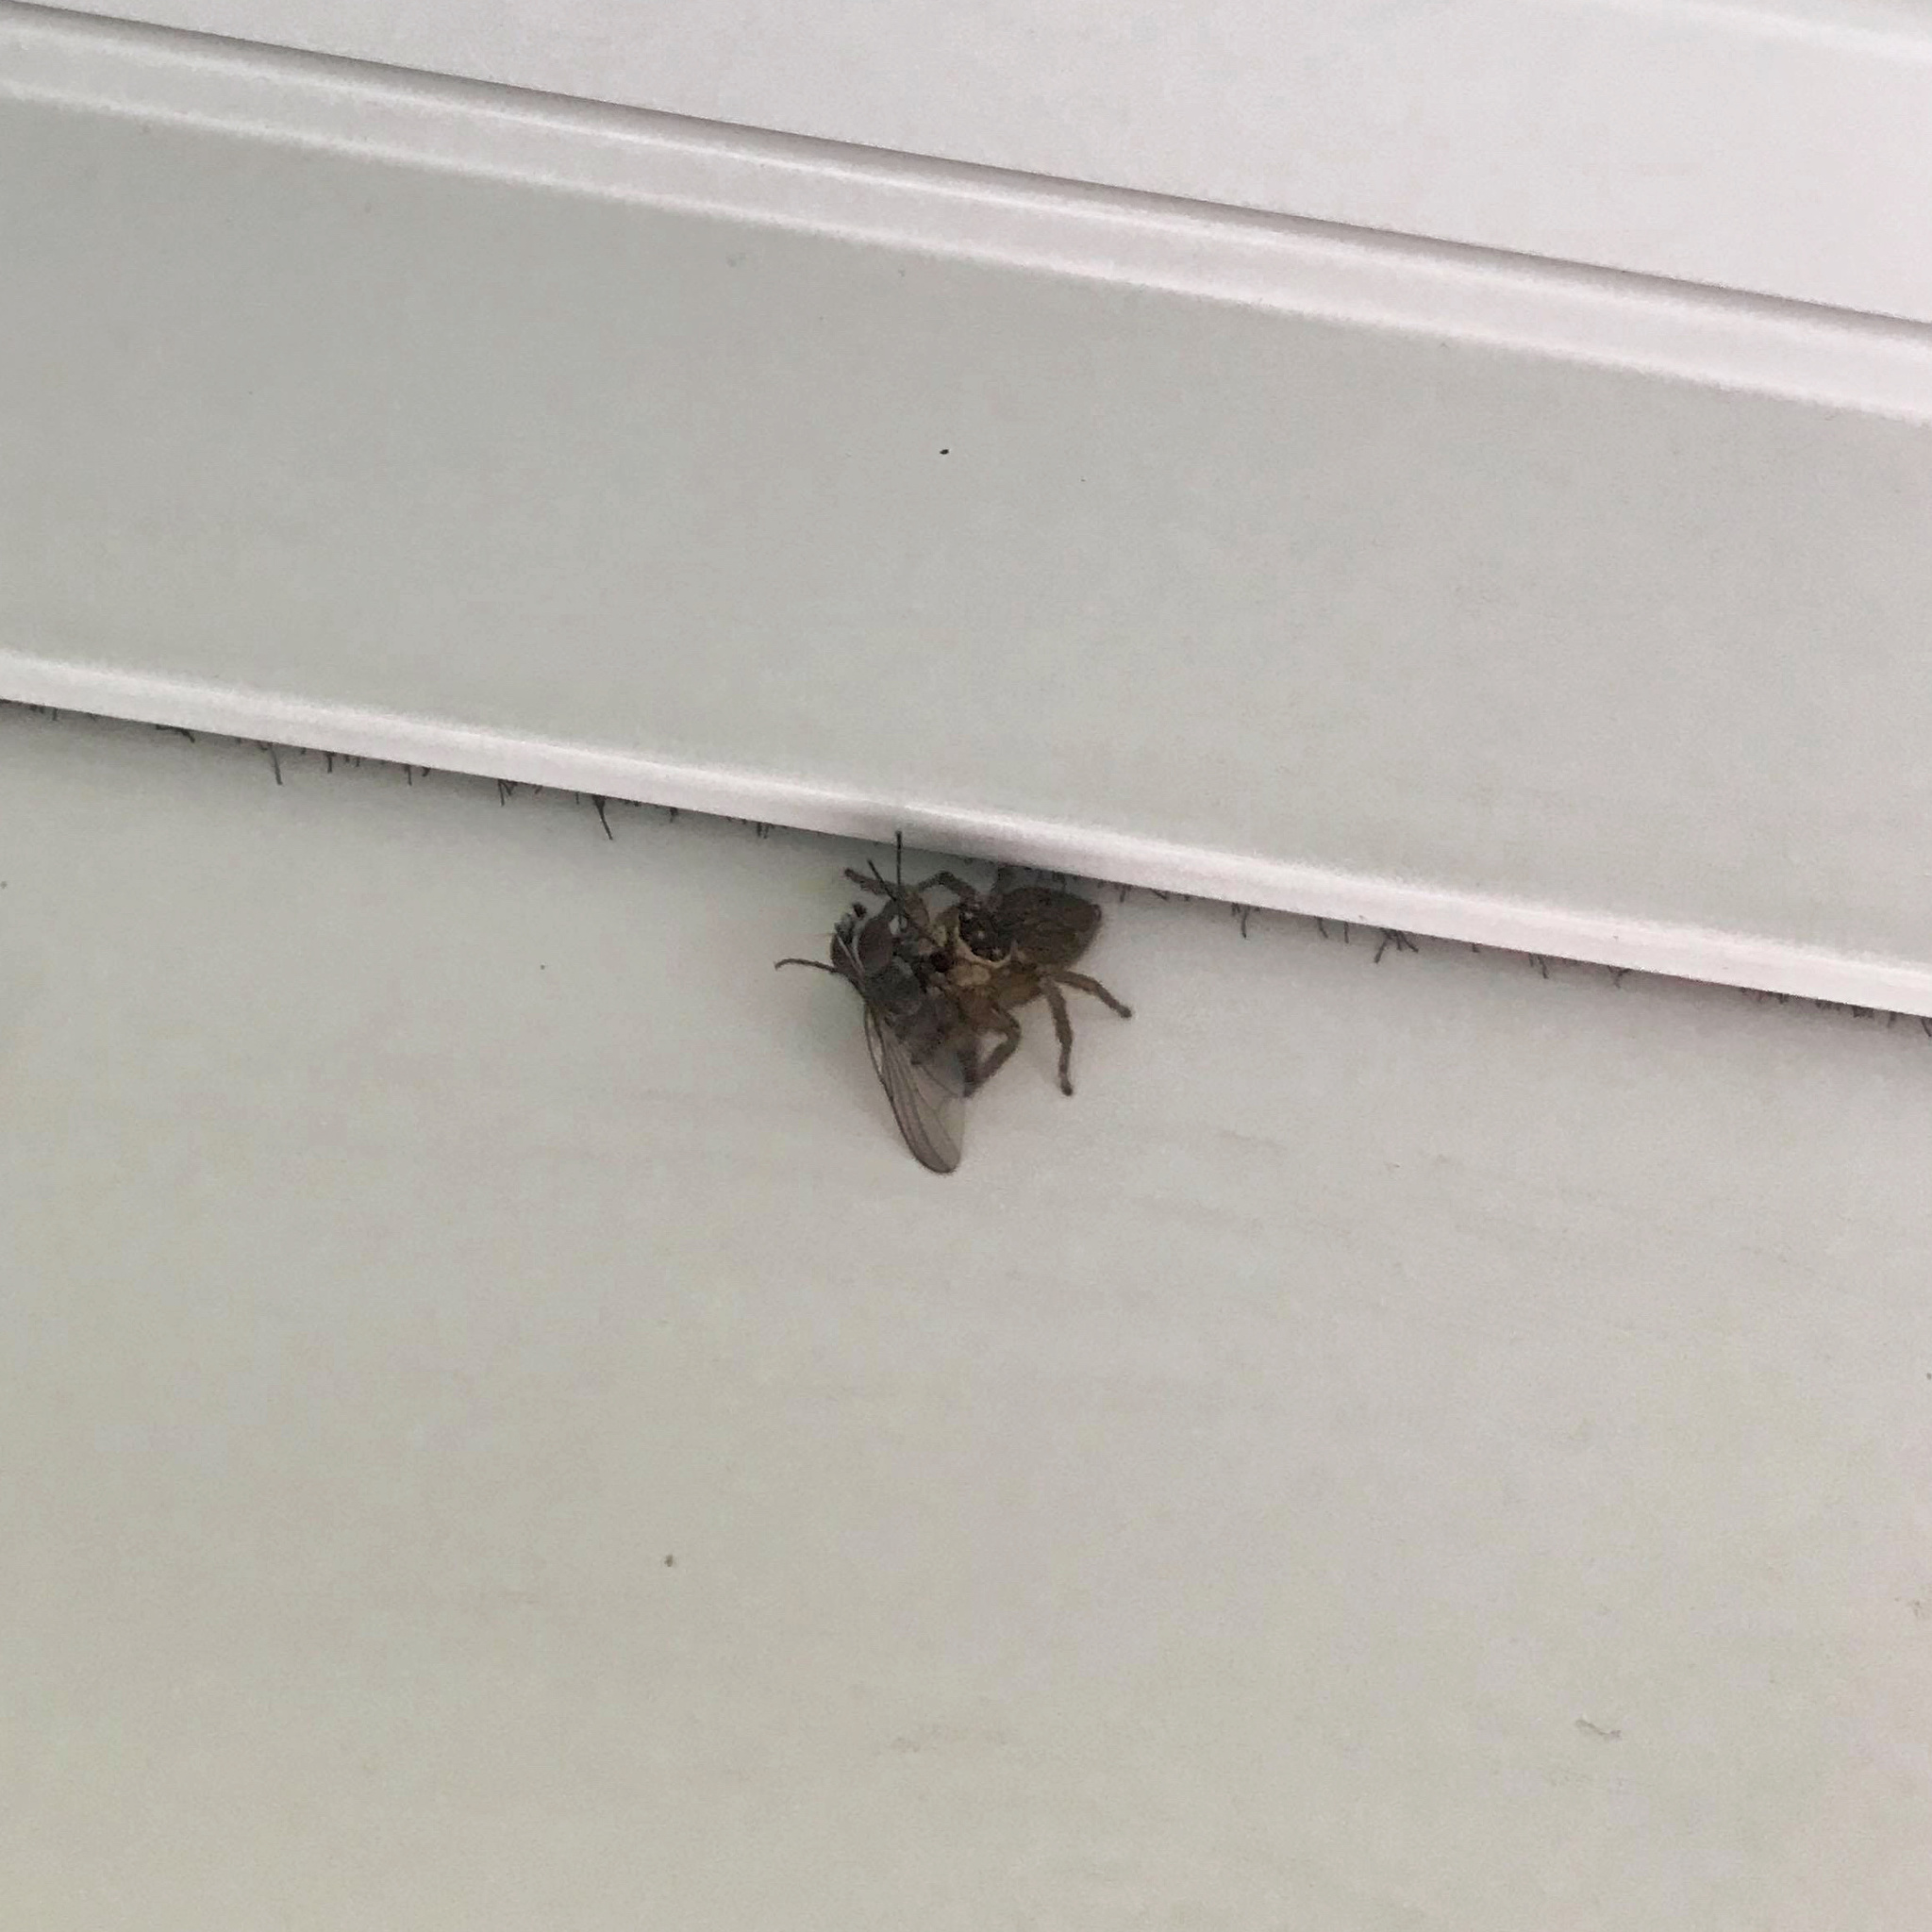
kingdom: Animalia
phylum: Arthropoda
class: Arachnida
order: Araneae
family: Salticidae
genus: Maratus
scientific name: Maratus griseus
